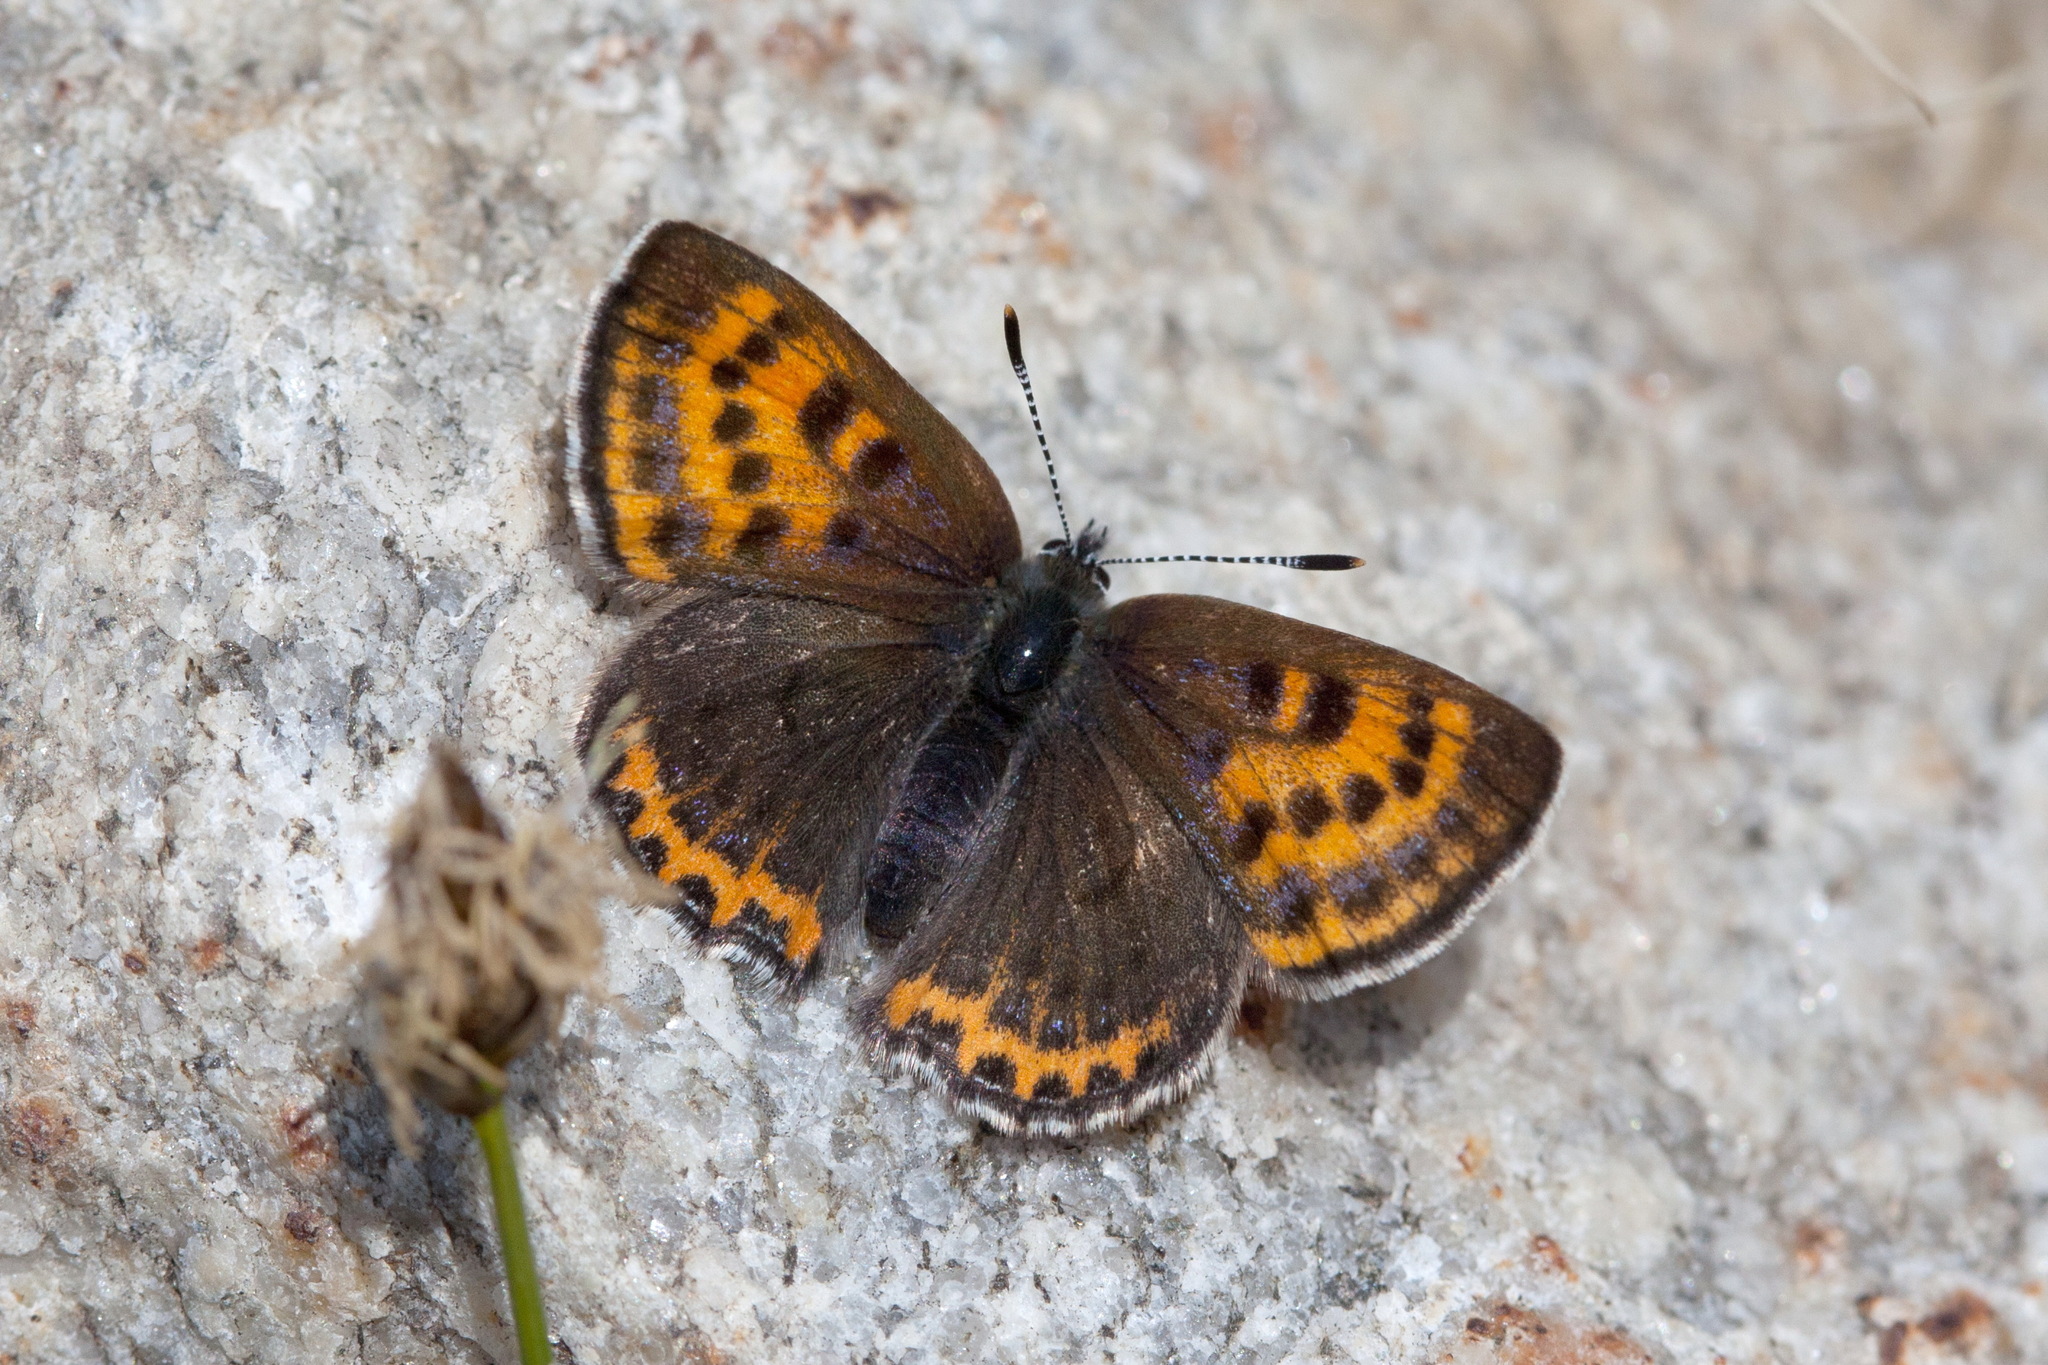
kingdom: Animalia
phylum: Arthropoda
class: Insecta
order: Lepidoptera
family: Lycaenidae
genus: Helleia
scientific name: Helleia helle
